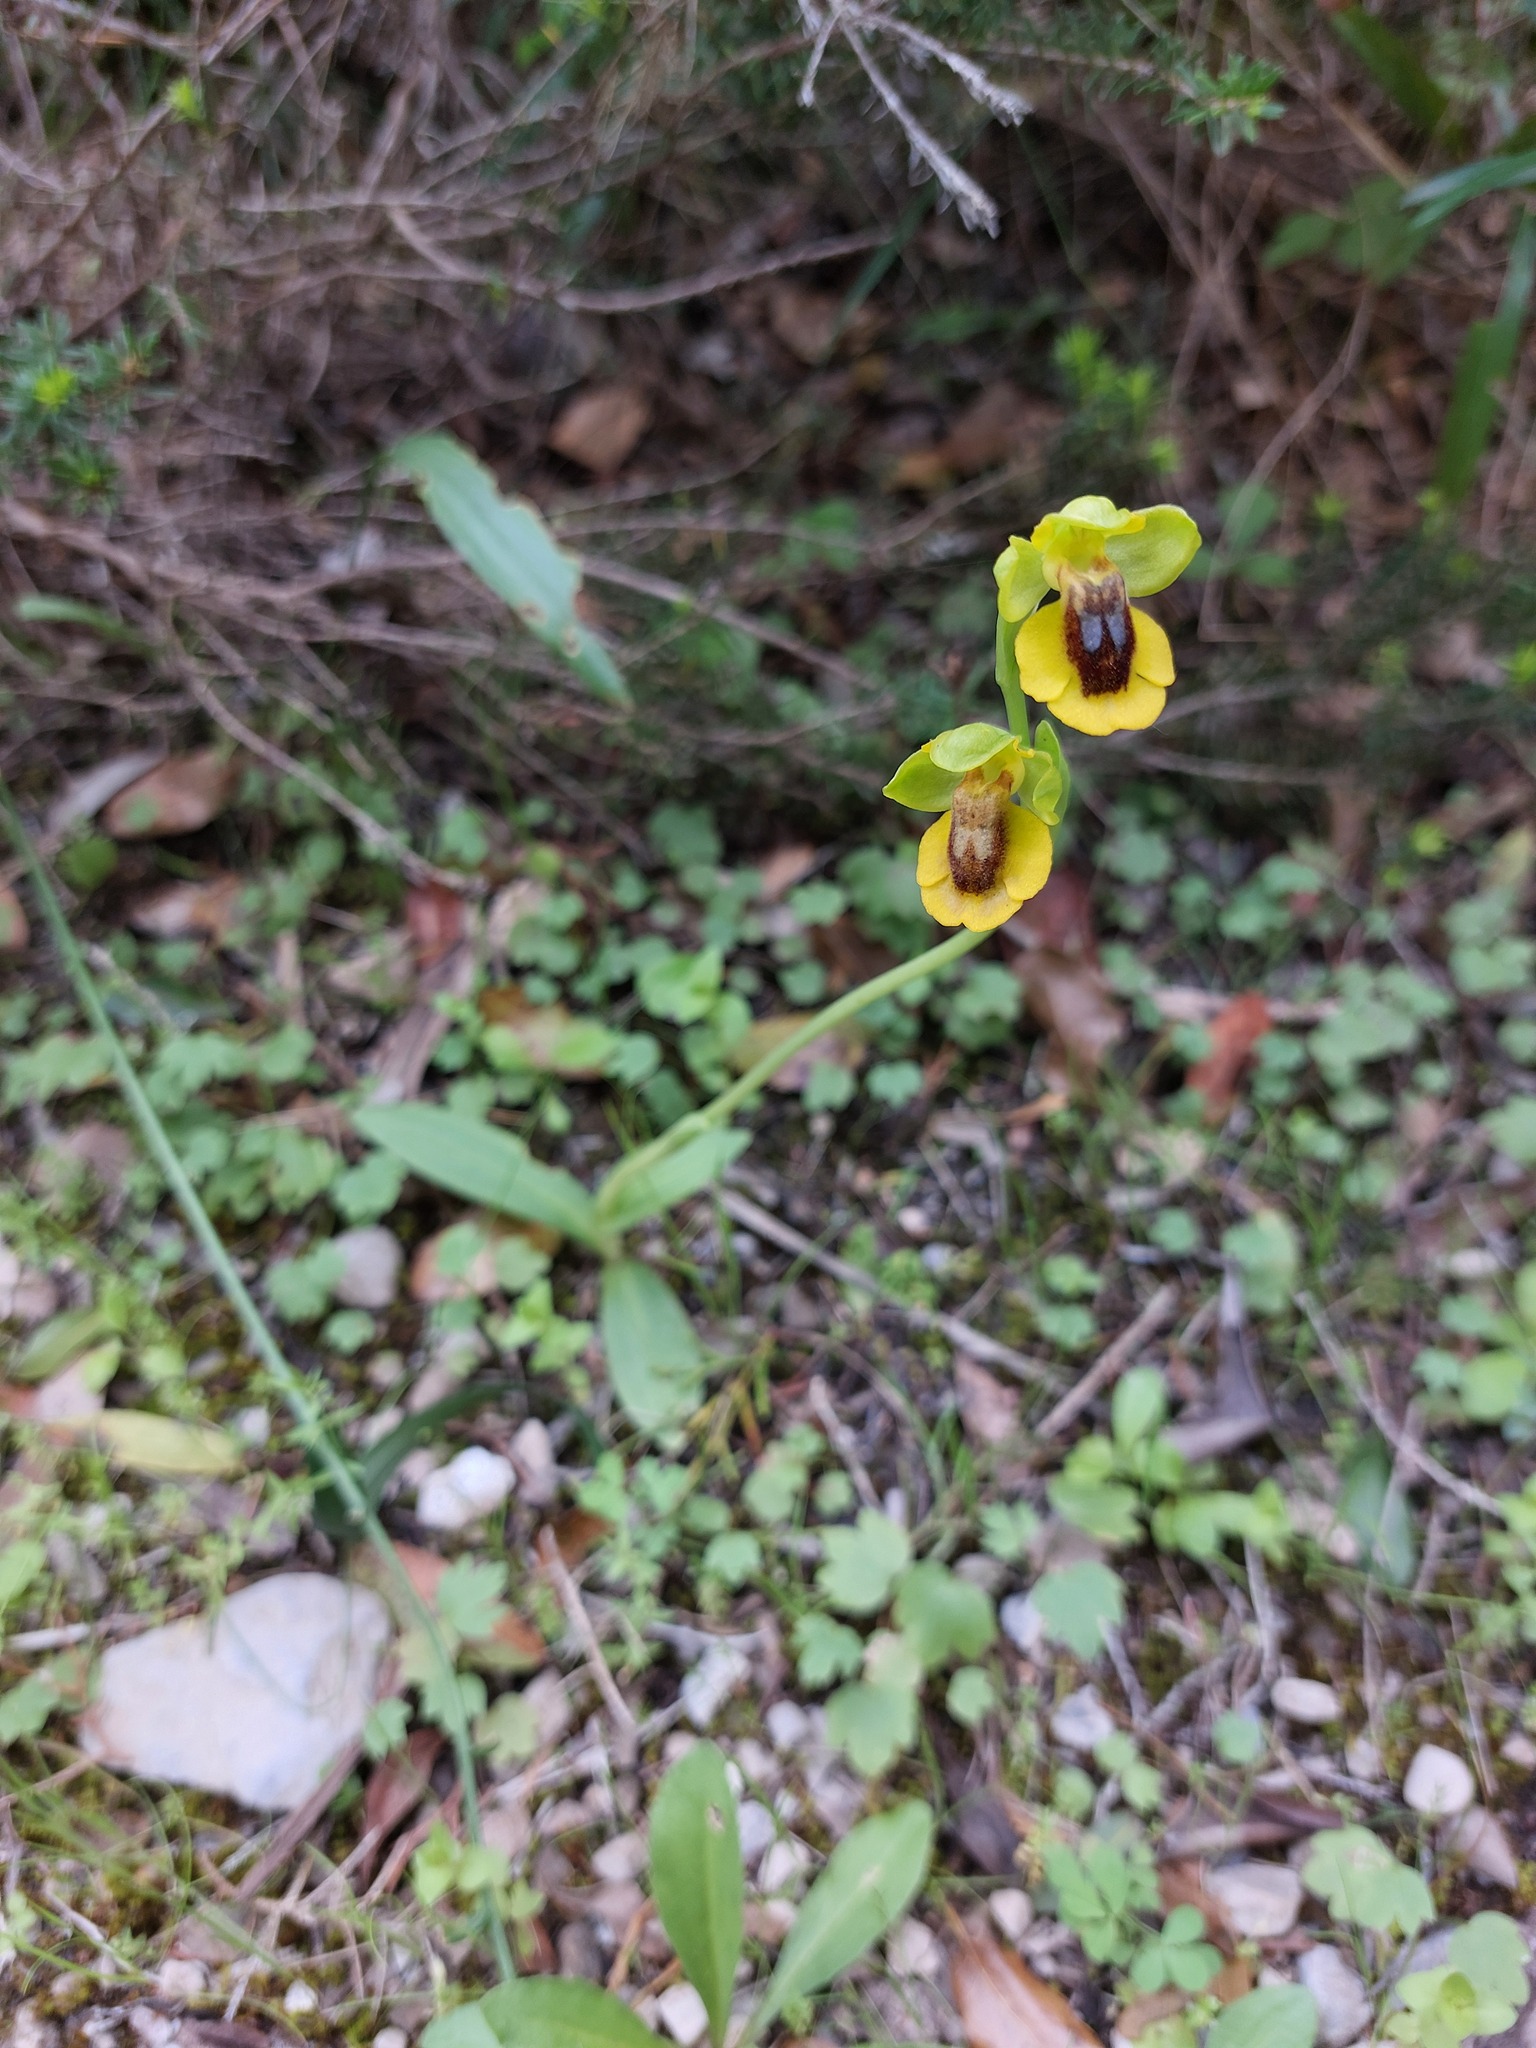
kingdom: Plantae
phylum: Tracheophyta
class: Liliopsida
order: Asparagales
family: Orchidaceae
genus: Ophrys
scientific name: Ophrys lutea
